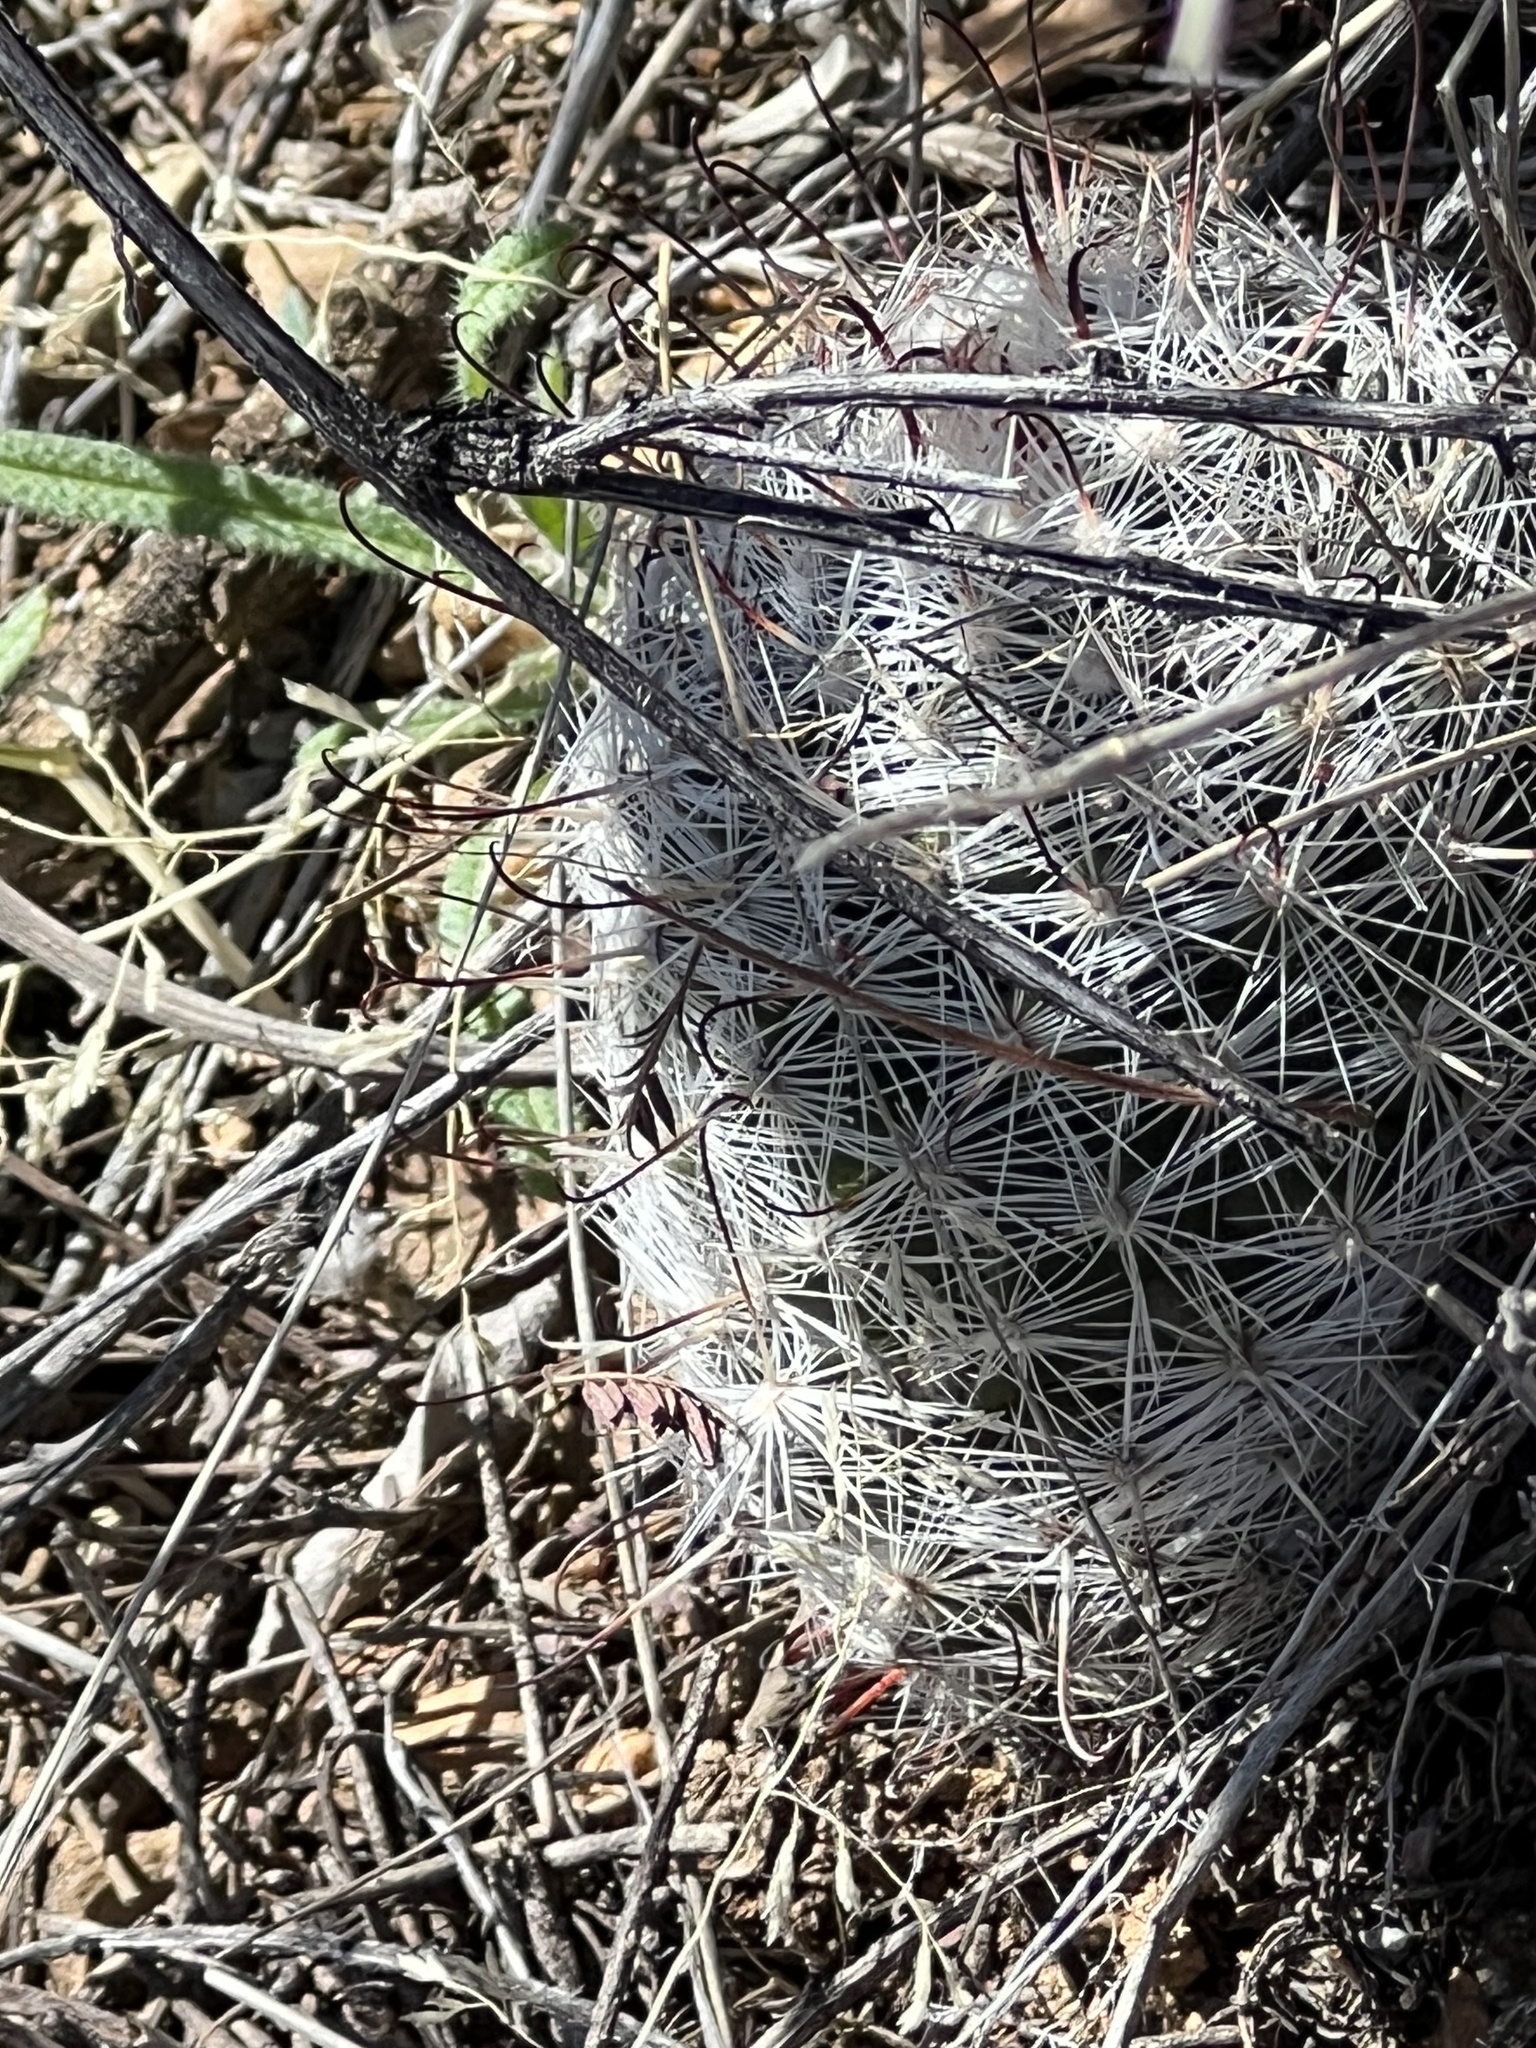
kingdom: Plantae
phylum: Tracheophyta
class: Magnoliopsida
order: Caryophyllales
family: Cactaceae
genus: Cochemiea
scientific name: Cochemiea grahamii
